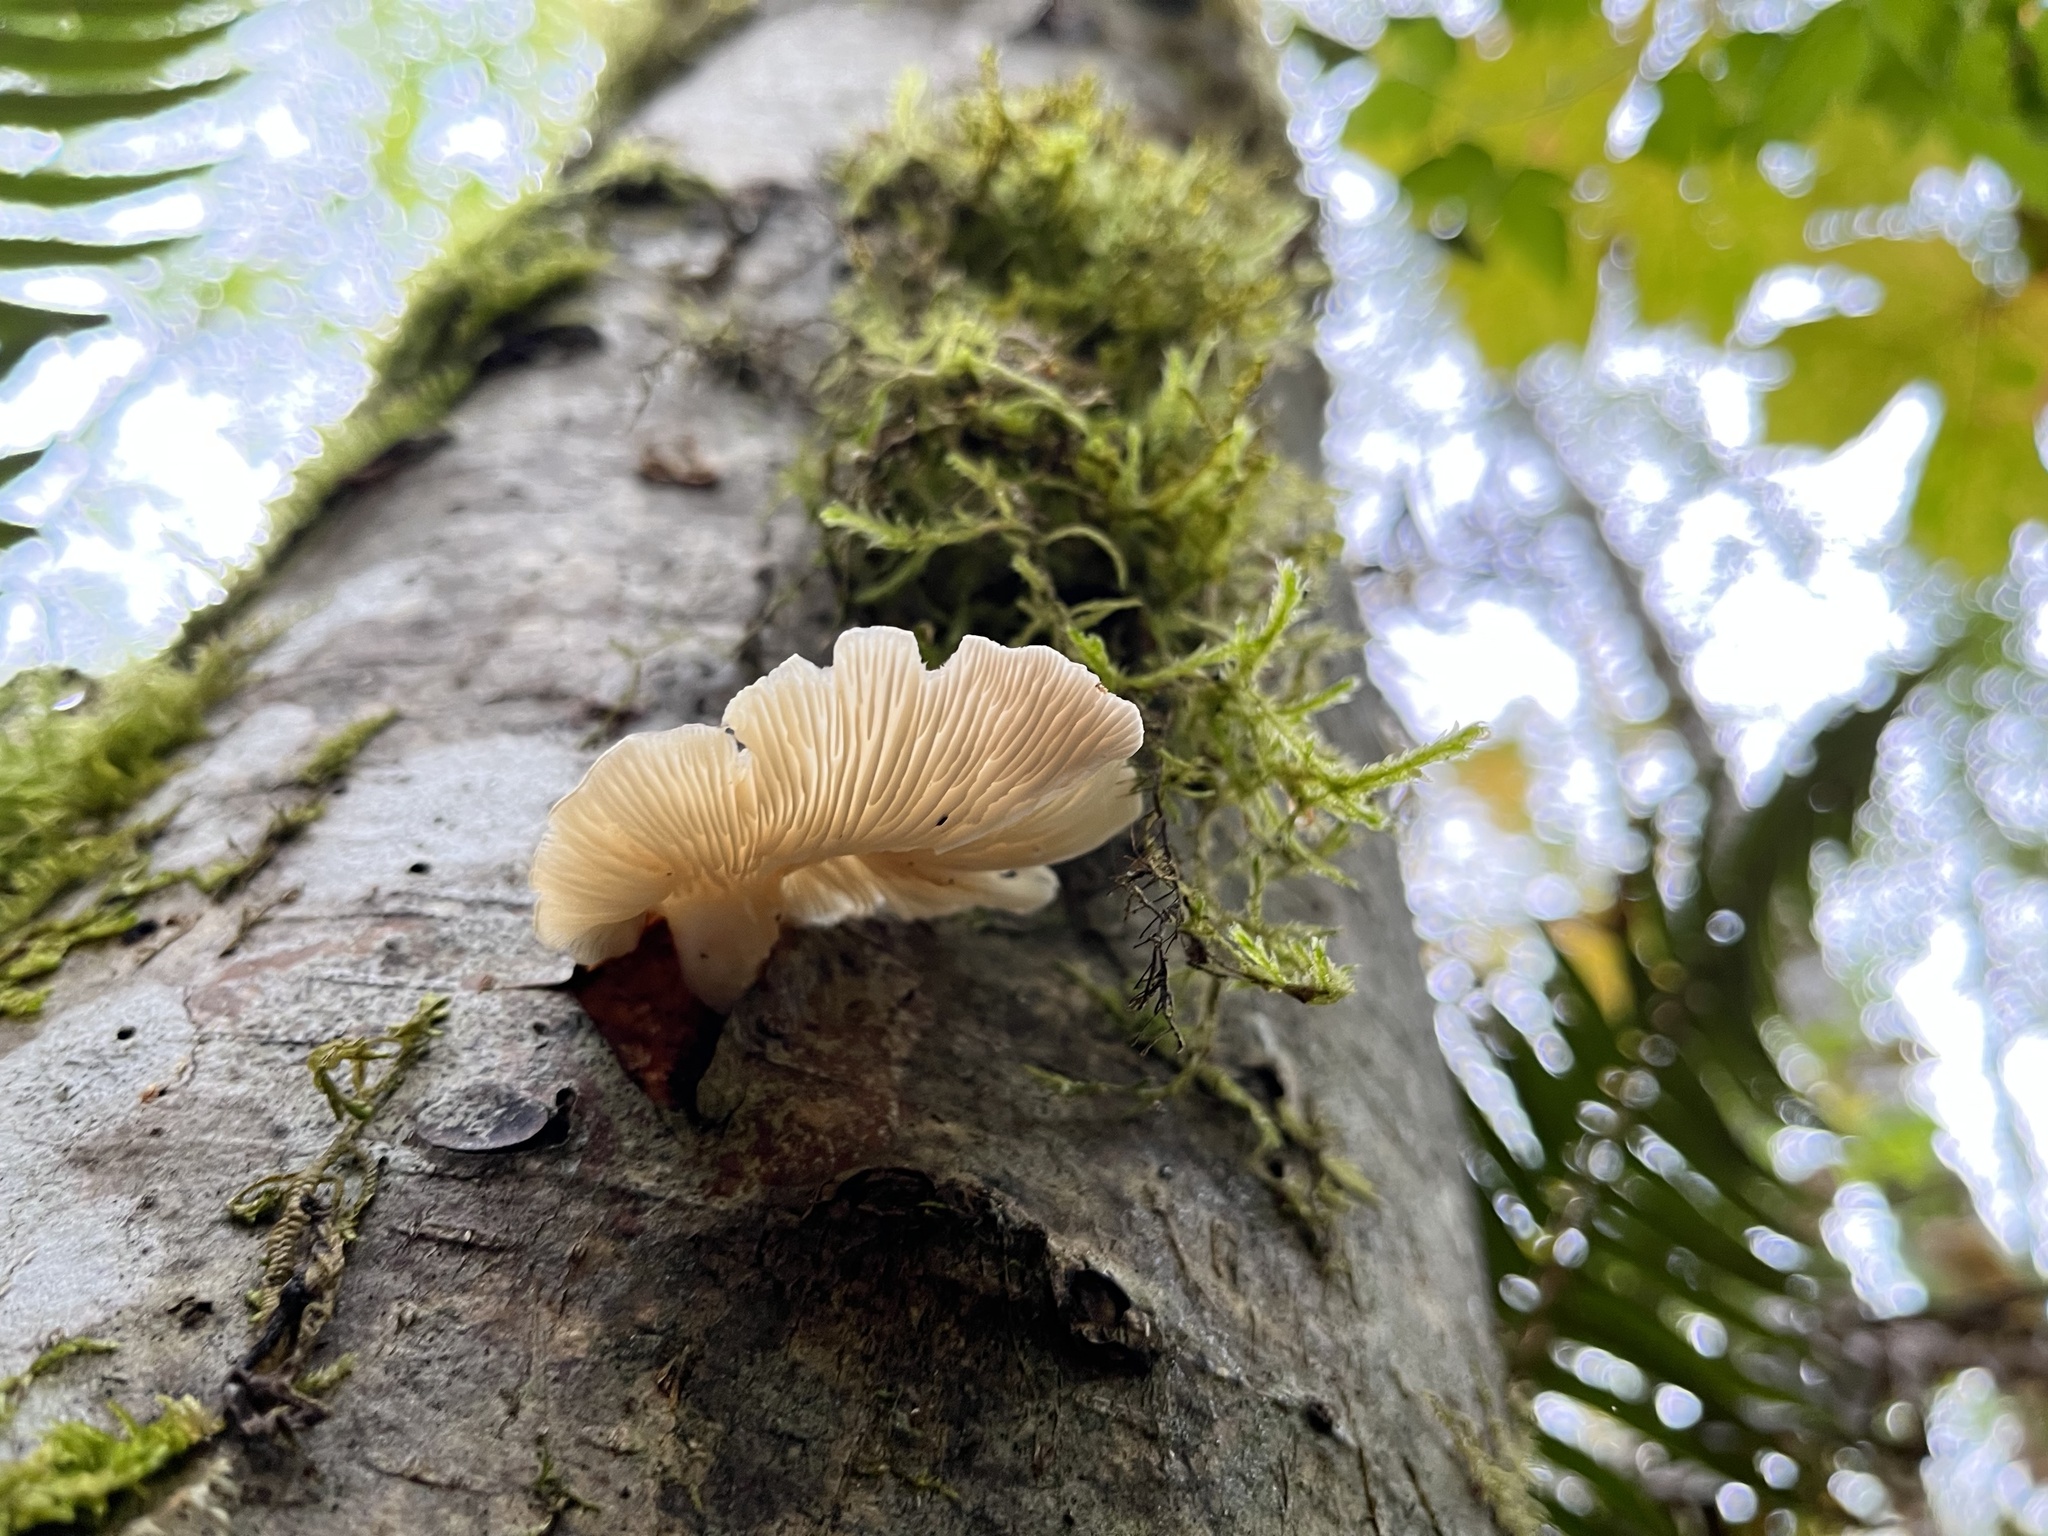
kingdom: Fungi
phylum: Basidiomycota
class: Agaricomycetes
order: Agaricales
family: Pleurotaceae
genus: Pleurotus
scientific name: Pleurotus pulmonarius
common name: Pale oyster
